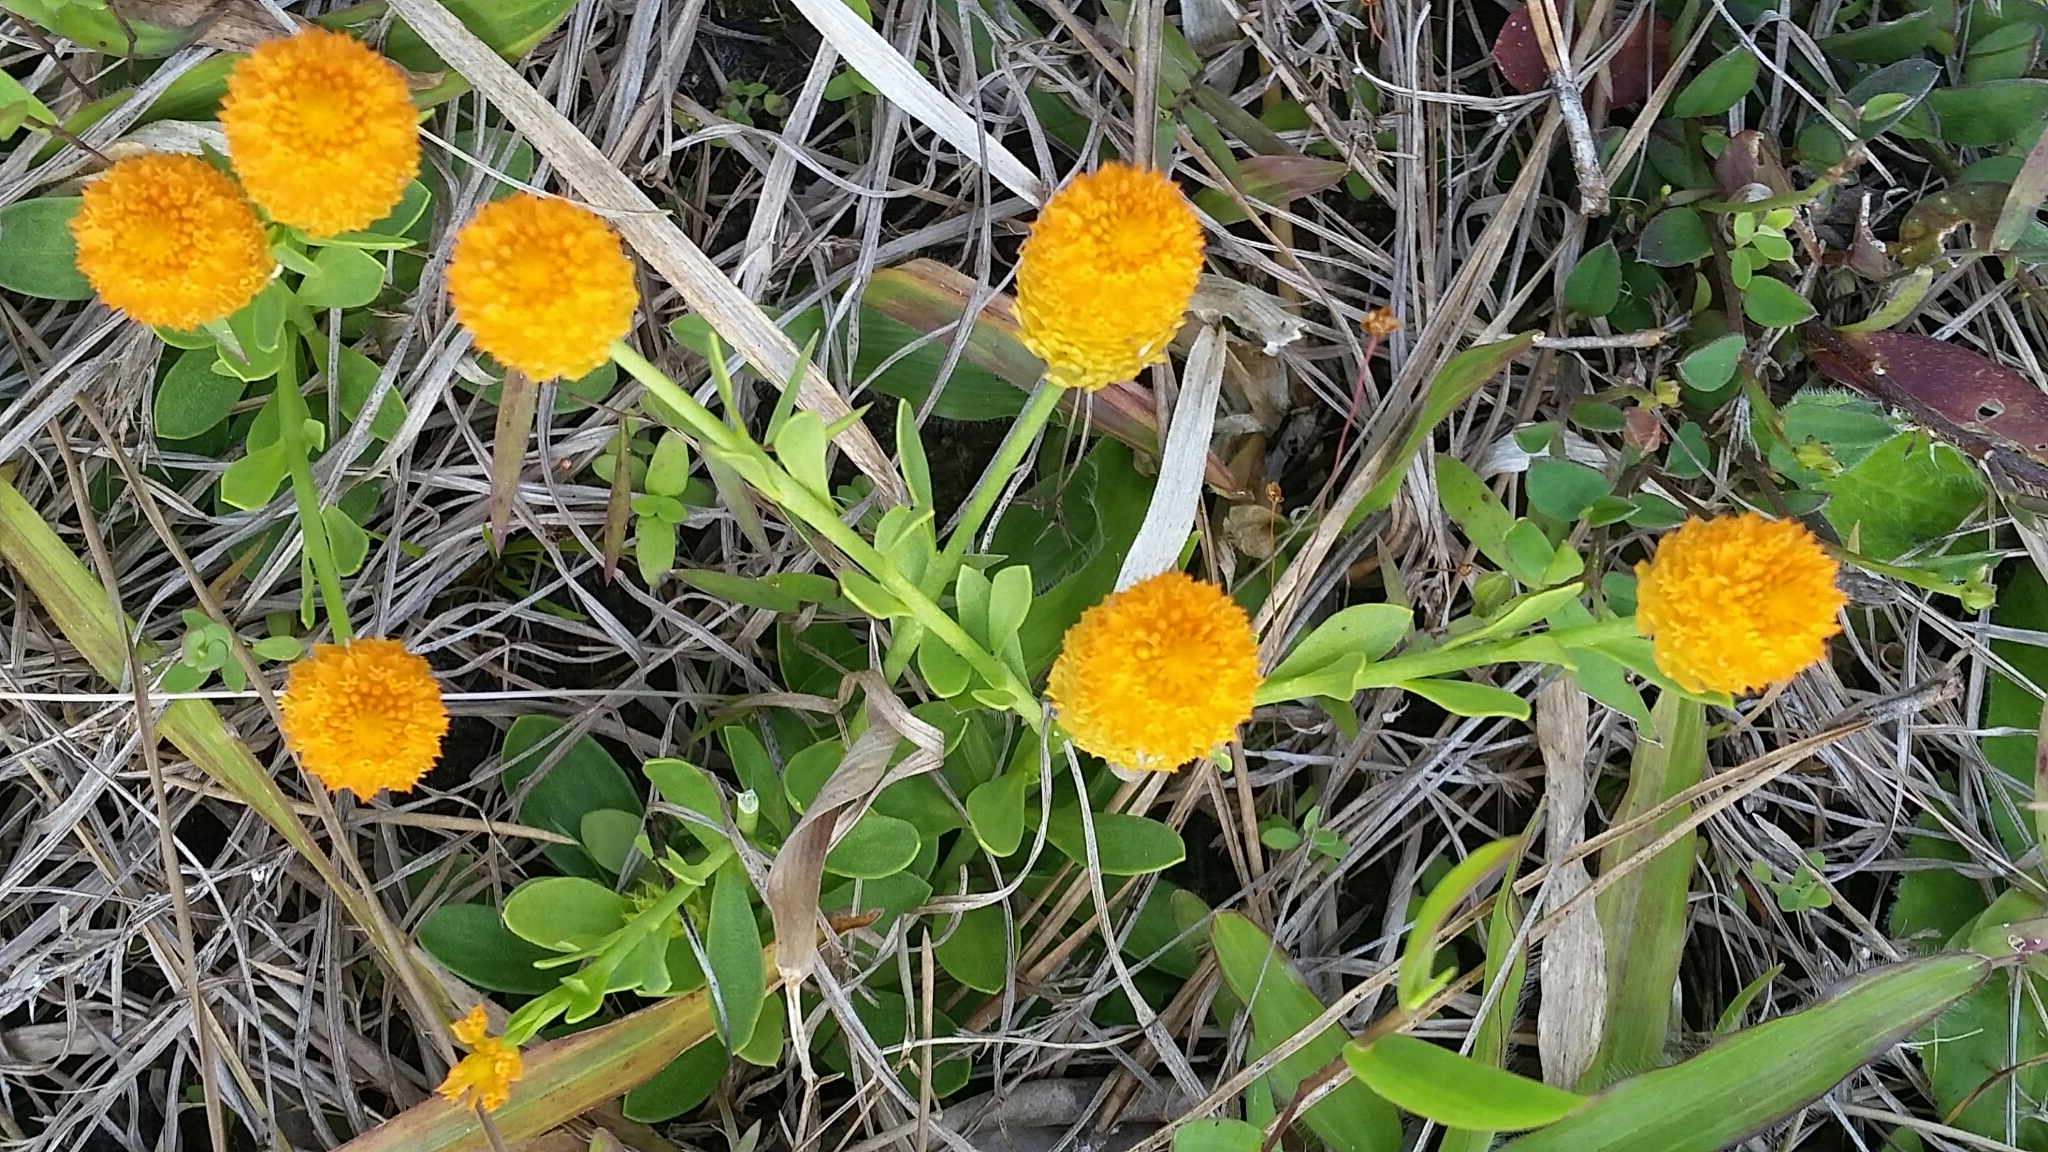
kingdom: Plantae
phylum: Tracheophyta
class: Magnoliopsida
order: Fabales
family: Polygalaceae
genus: Polygala
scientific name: Polygala lutea
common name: Orange milkwort
